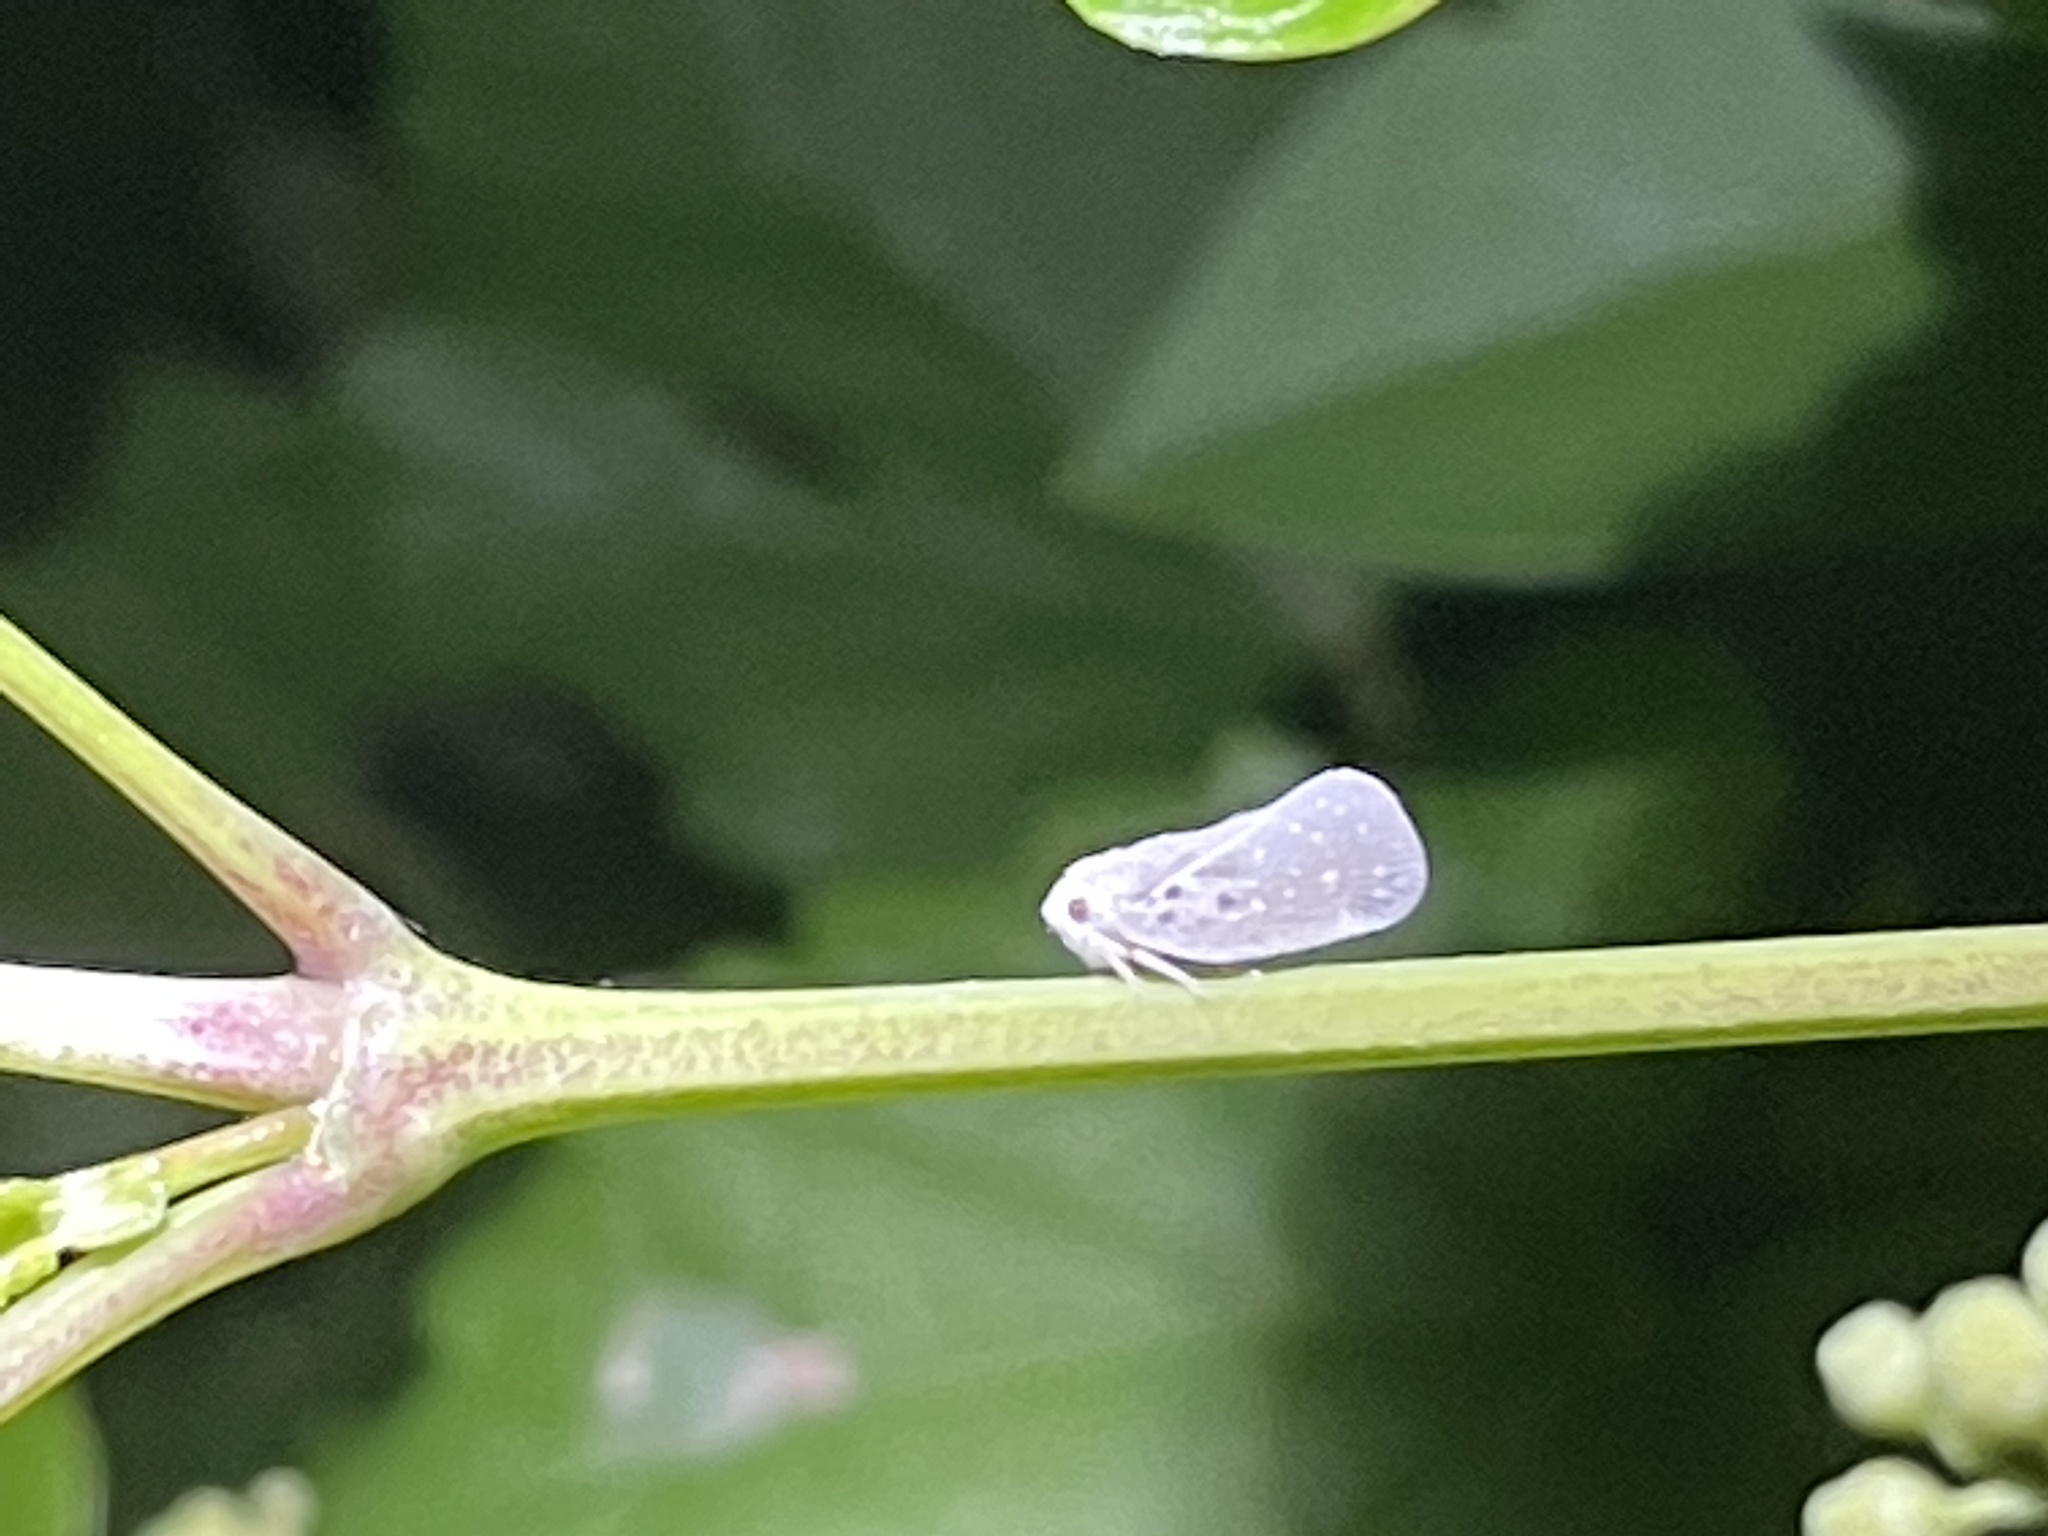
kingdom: Animalia
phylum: Arthropoda
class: Insecta
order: Hemiptera
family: Flatidae
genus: Metcalfa
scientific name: Metcalfa pruinosa
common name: Citrus flatid planthopper
